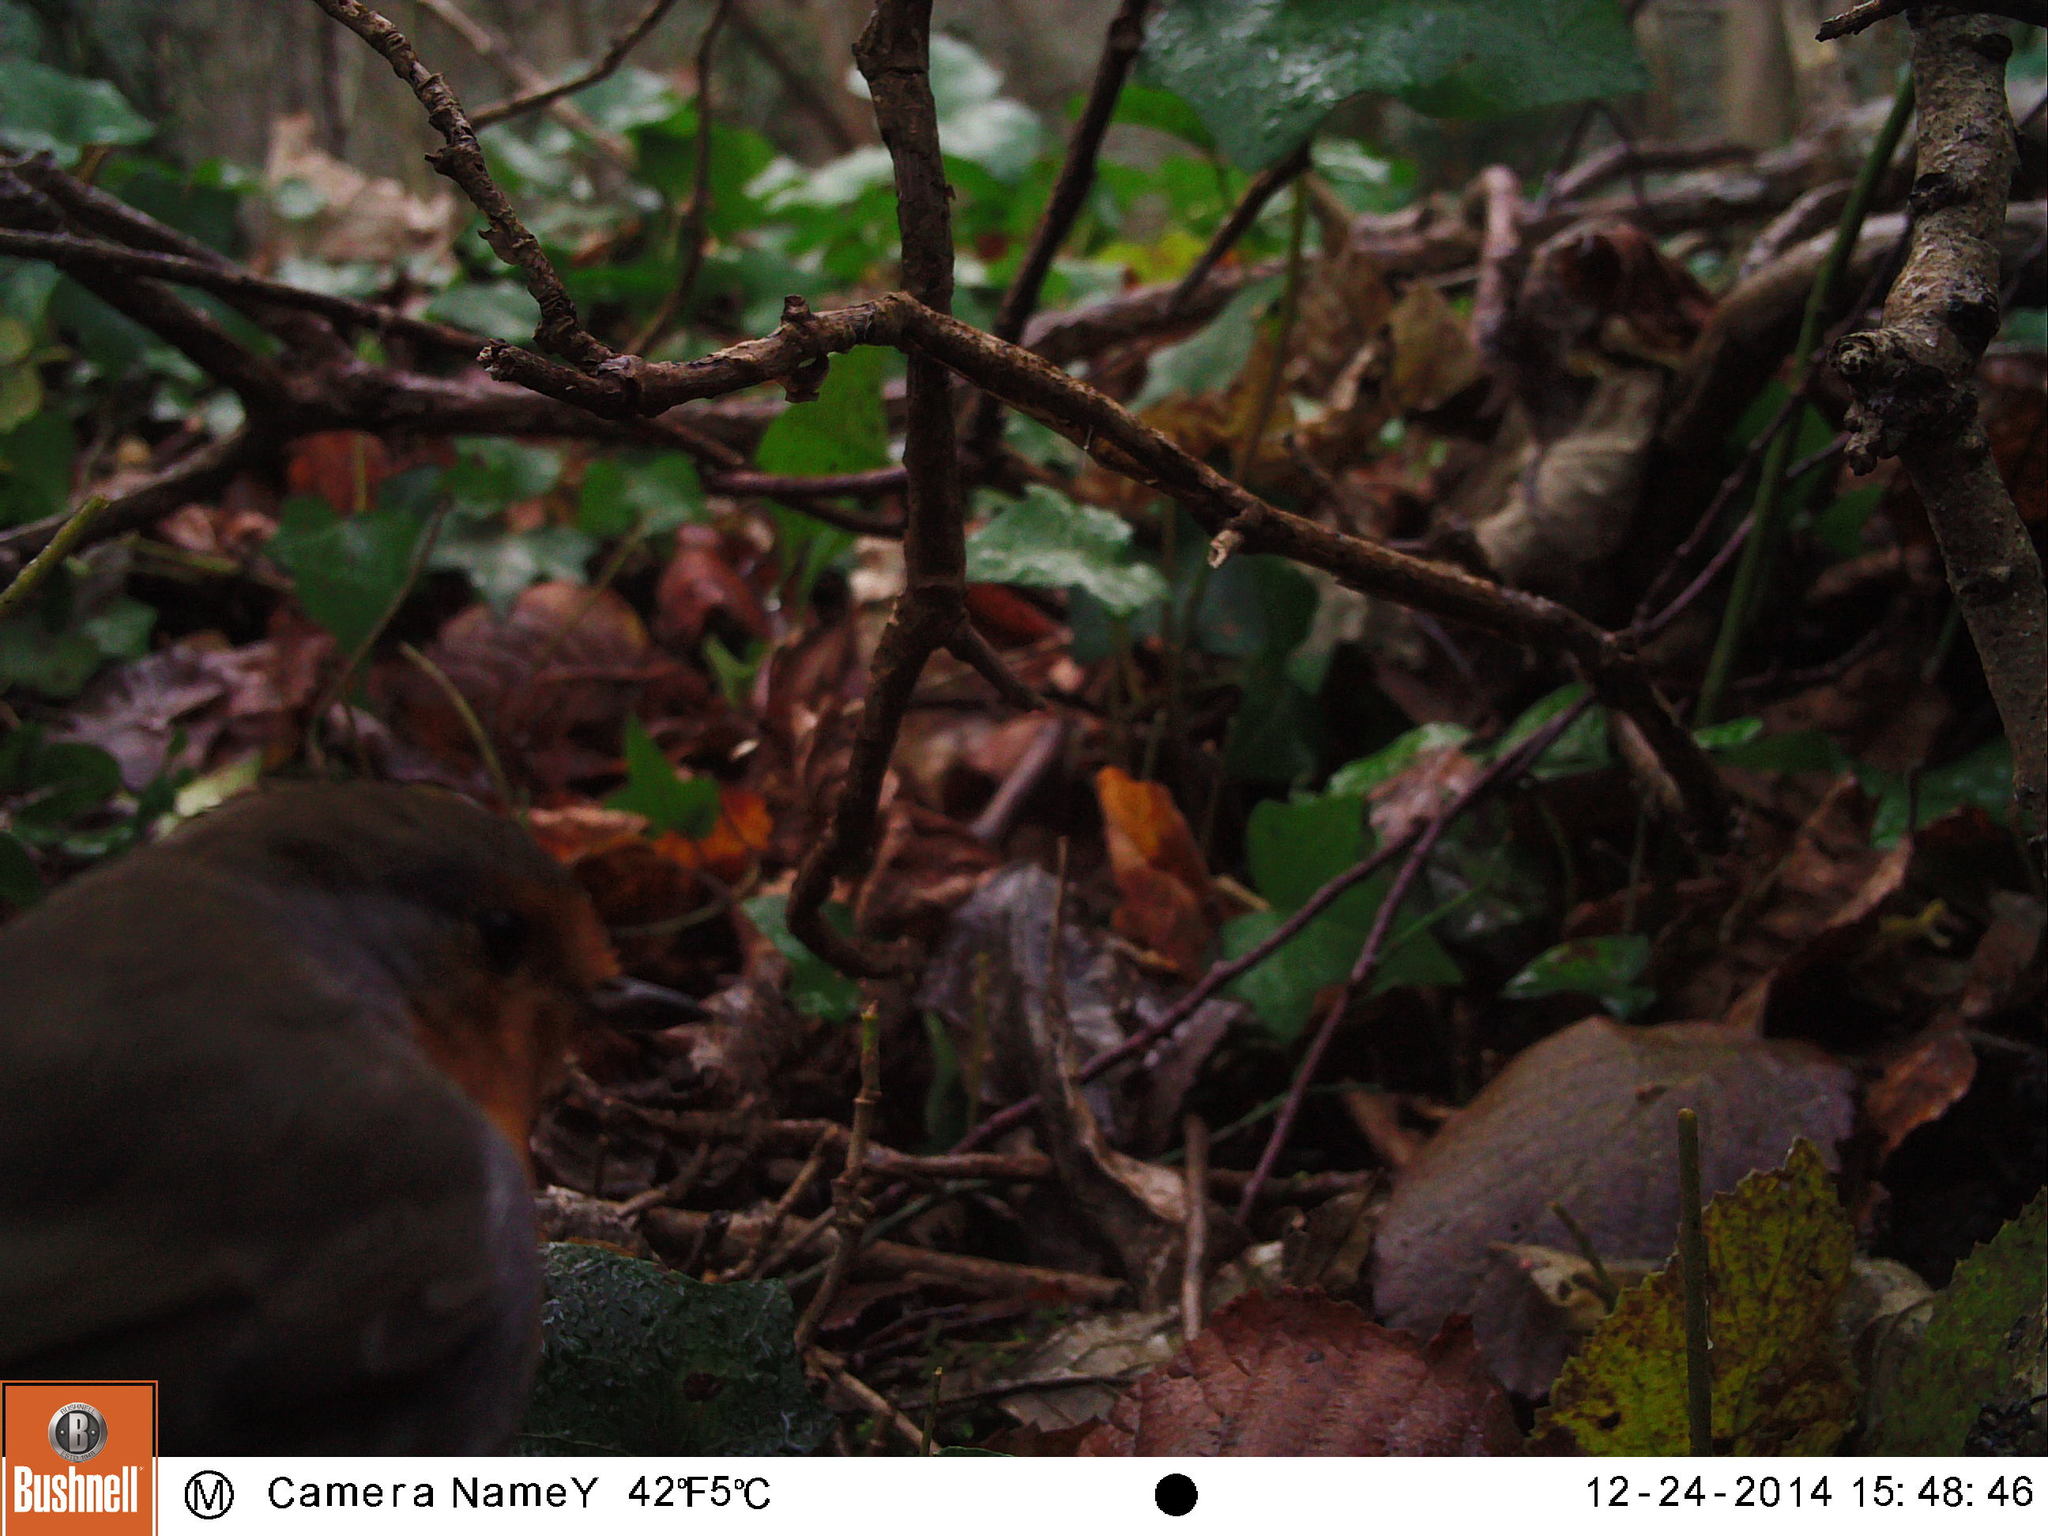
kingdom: Animalia
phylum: Chordata
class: Aves
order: Passeriformes
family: Muscicapidae
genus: Erithacus
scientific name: Erithacus rubecula
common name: European robin
